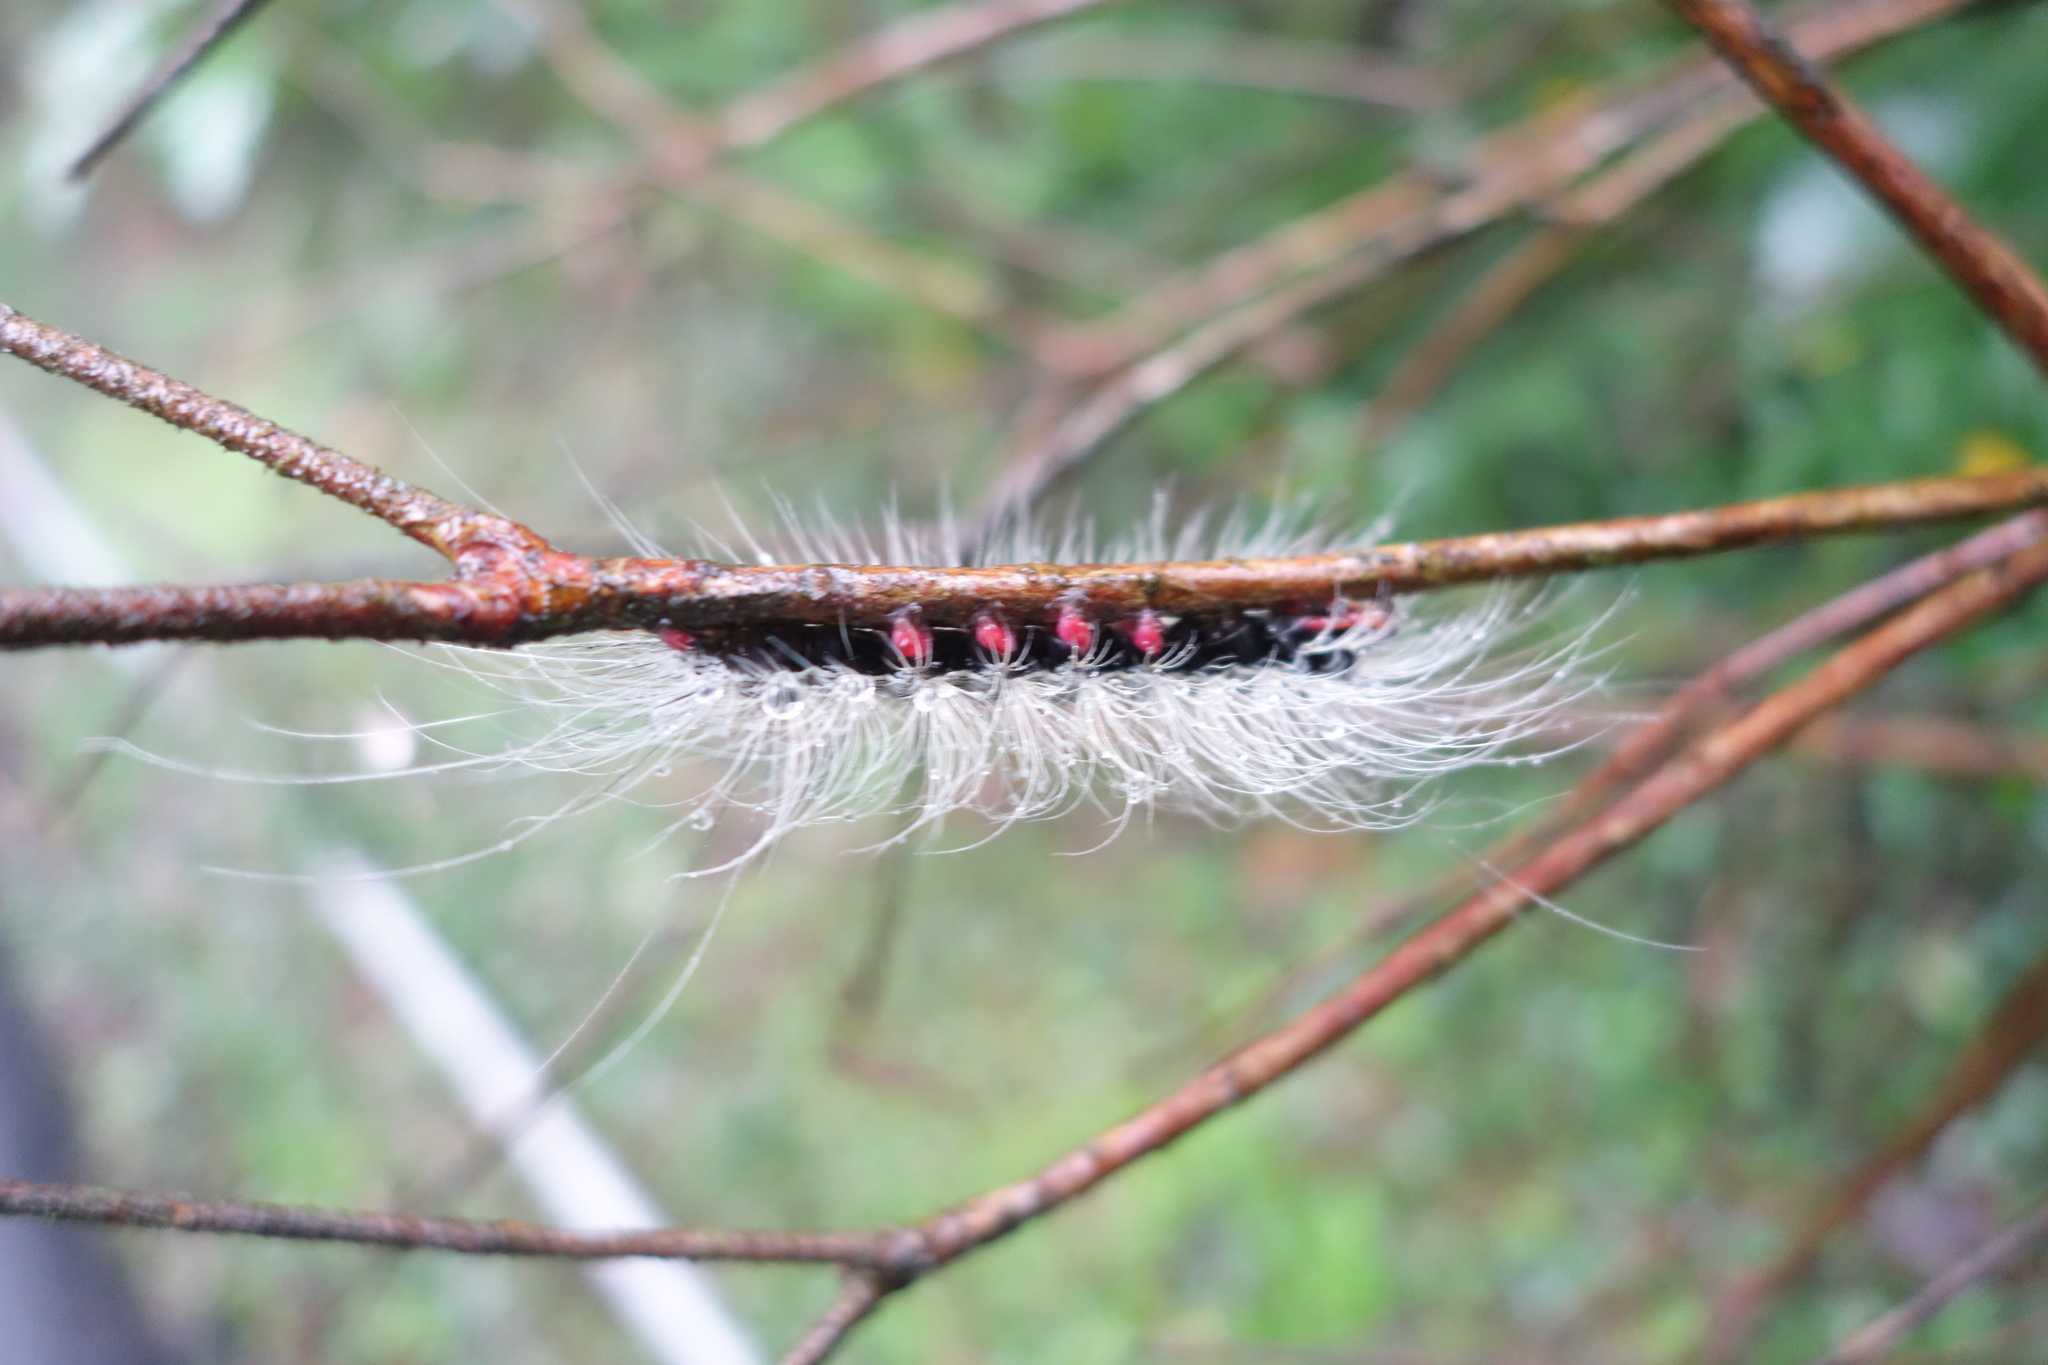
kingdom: Animalia
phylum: Arthropoda
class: Insecta
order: Lepidoptera
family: Erebidae
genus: Chrysaeglia
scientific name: Chrysaeglia magnifica
